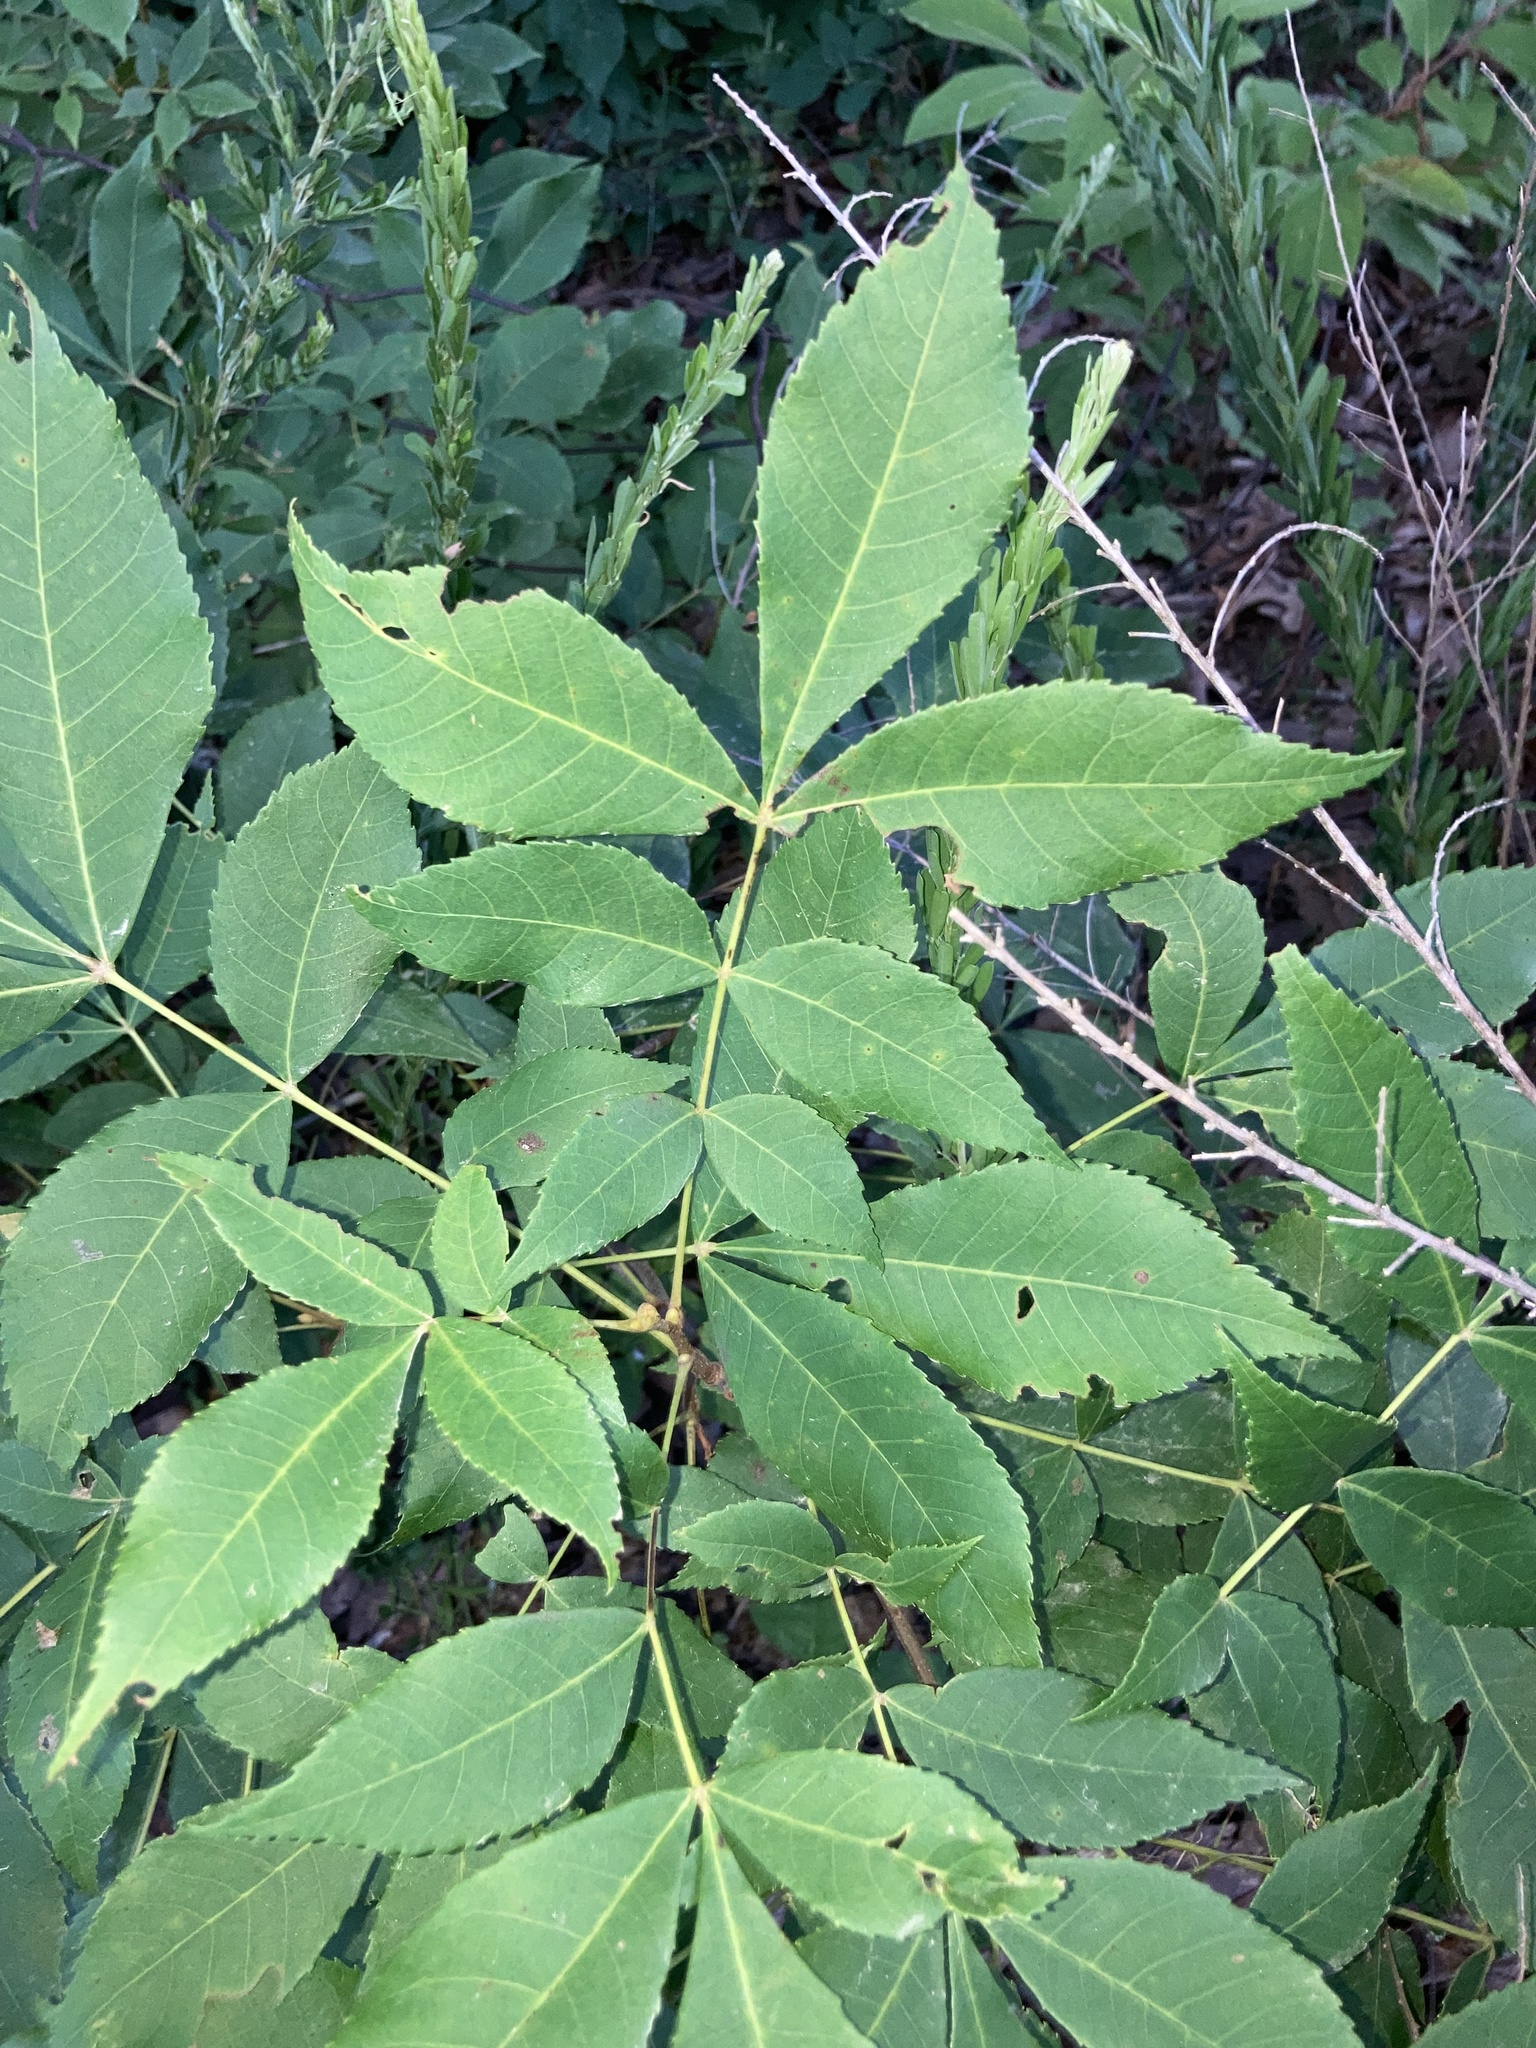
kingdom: Plantae
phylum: Tracheophyta
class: Magnoliopsida
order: Fagales
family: Juglandaceae
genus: Carya
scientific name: Carya texana
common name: Black hickory
